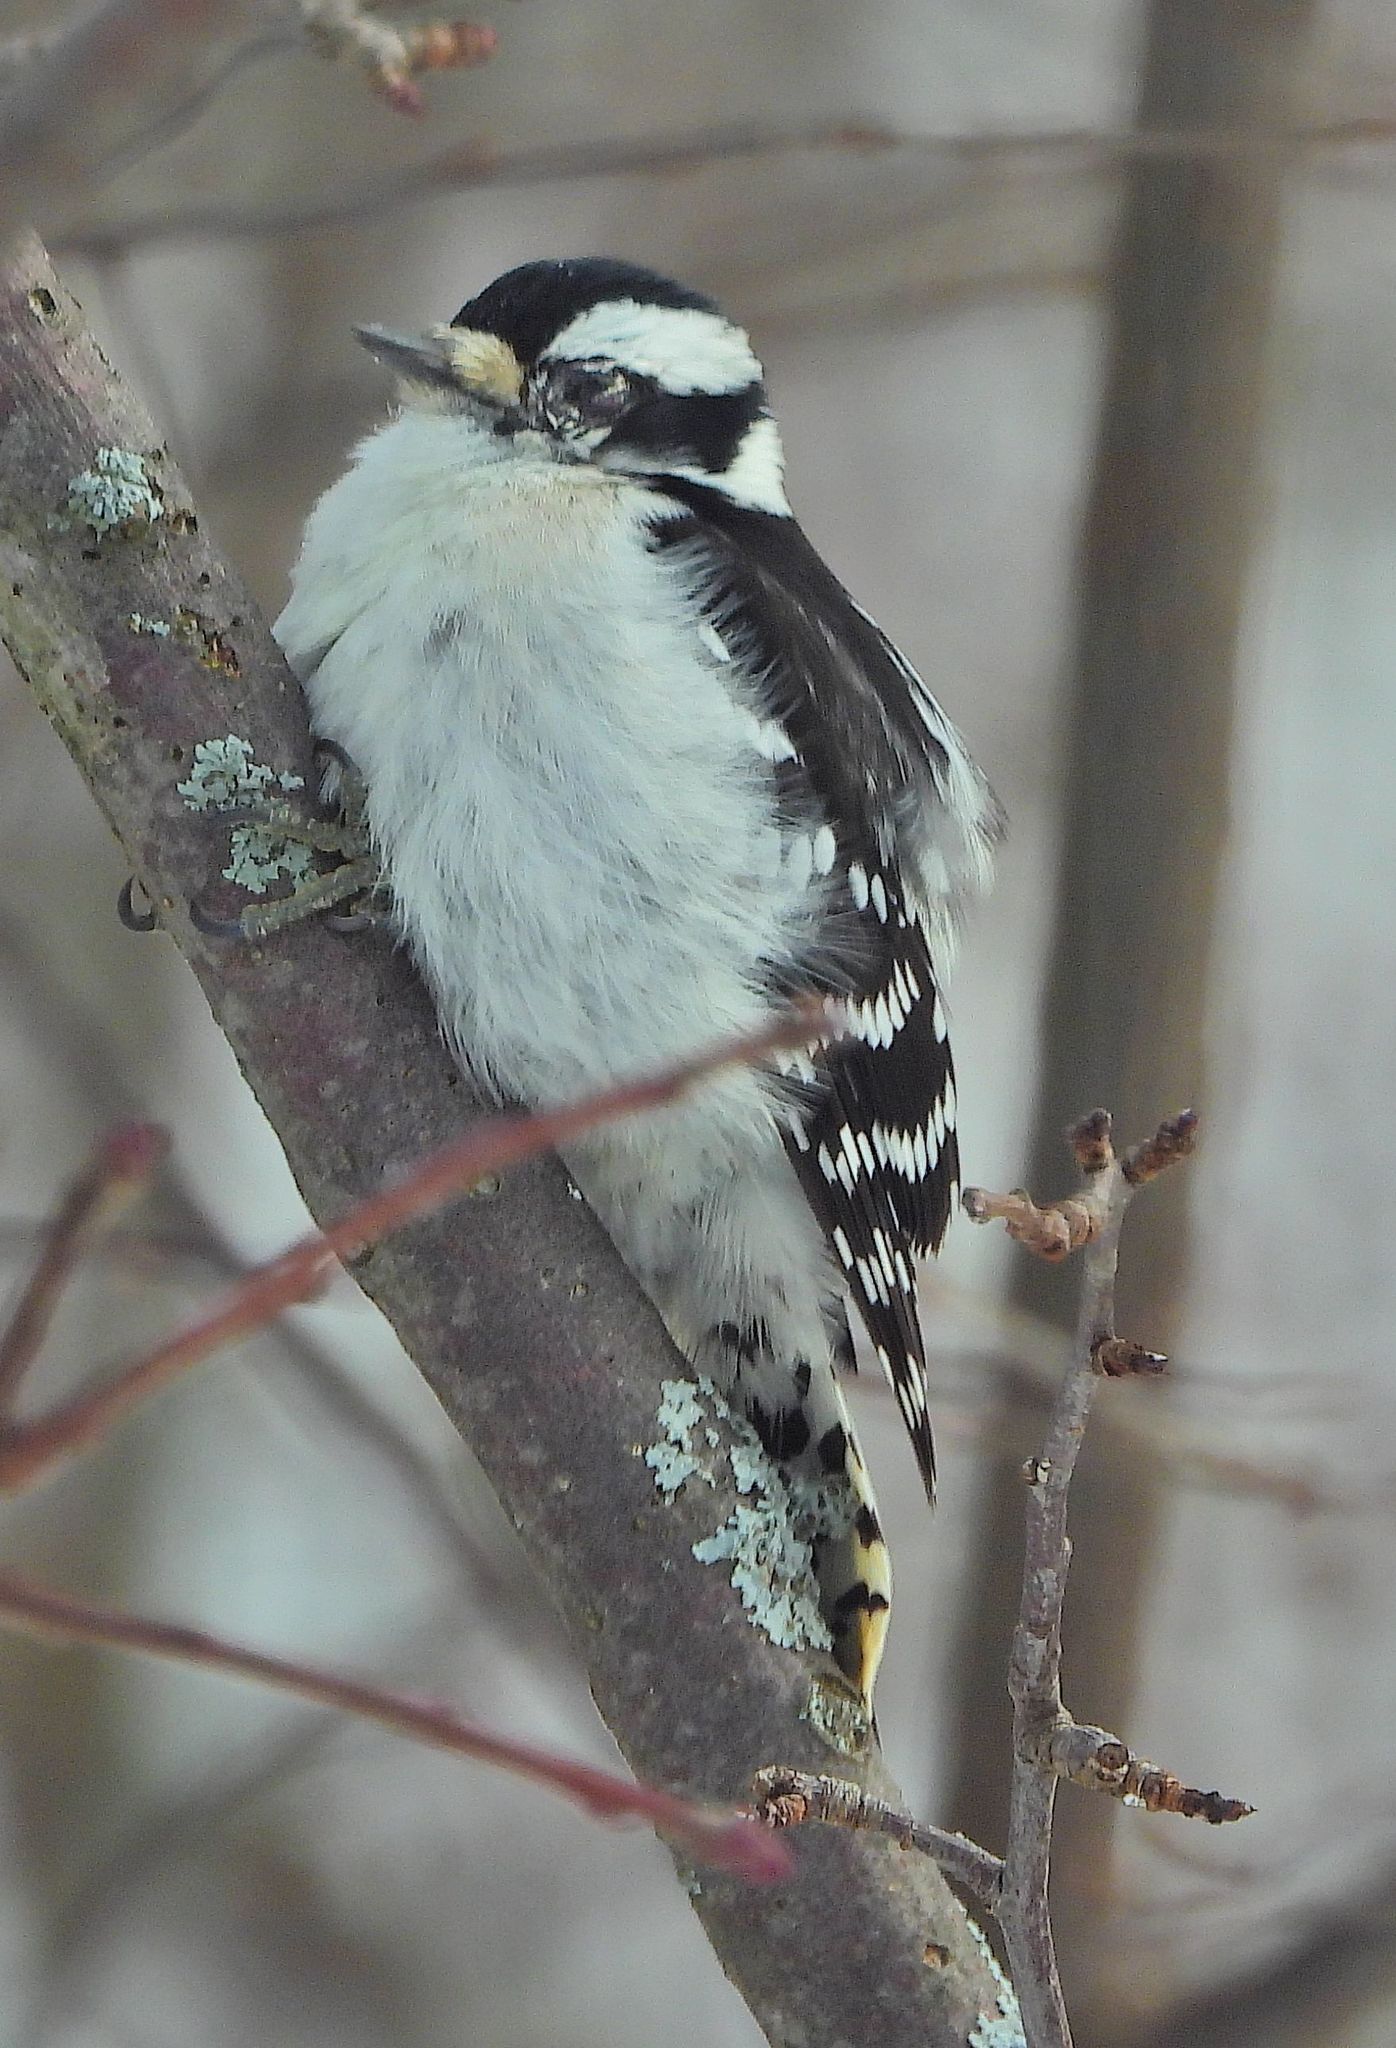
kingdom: Animalia
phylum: Chordata
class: Aves
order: Piciformes
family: Picidae
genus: Dryobates
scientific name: Dryobates pubescens
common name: Downy woodpecker
